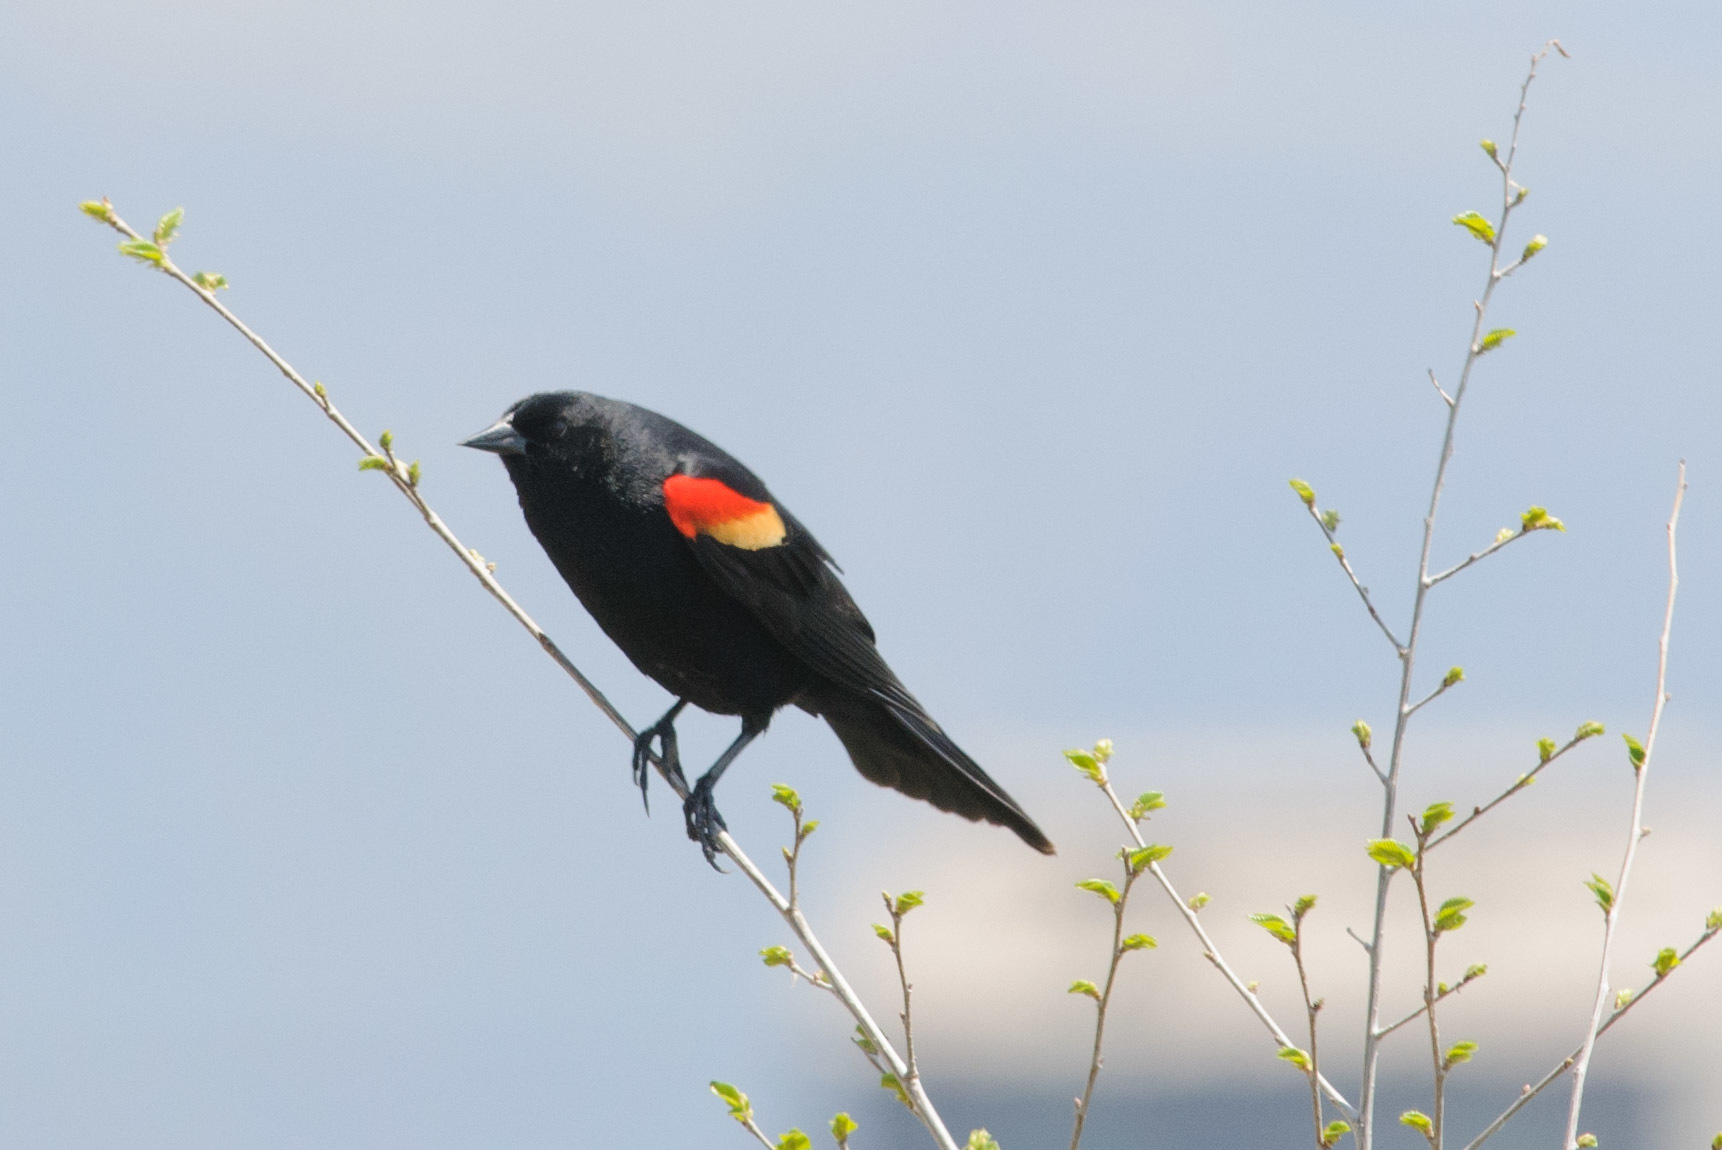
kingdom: Animalia
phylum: Chordata
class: Aves
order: Passeriformes
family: Icteridae
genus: Agelaius
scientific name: Agelaius phoeniceus
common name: Red-winged blackbird
